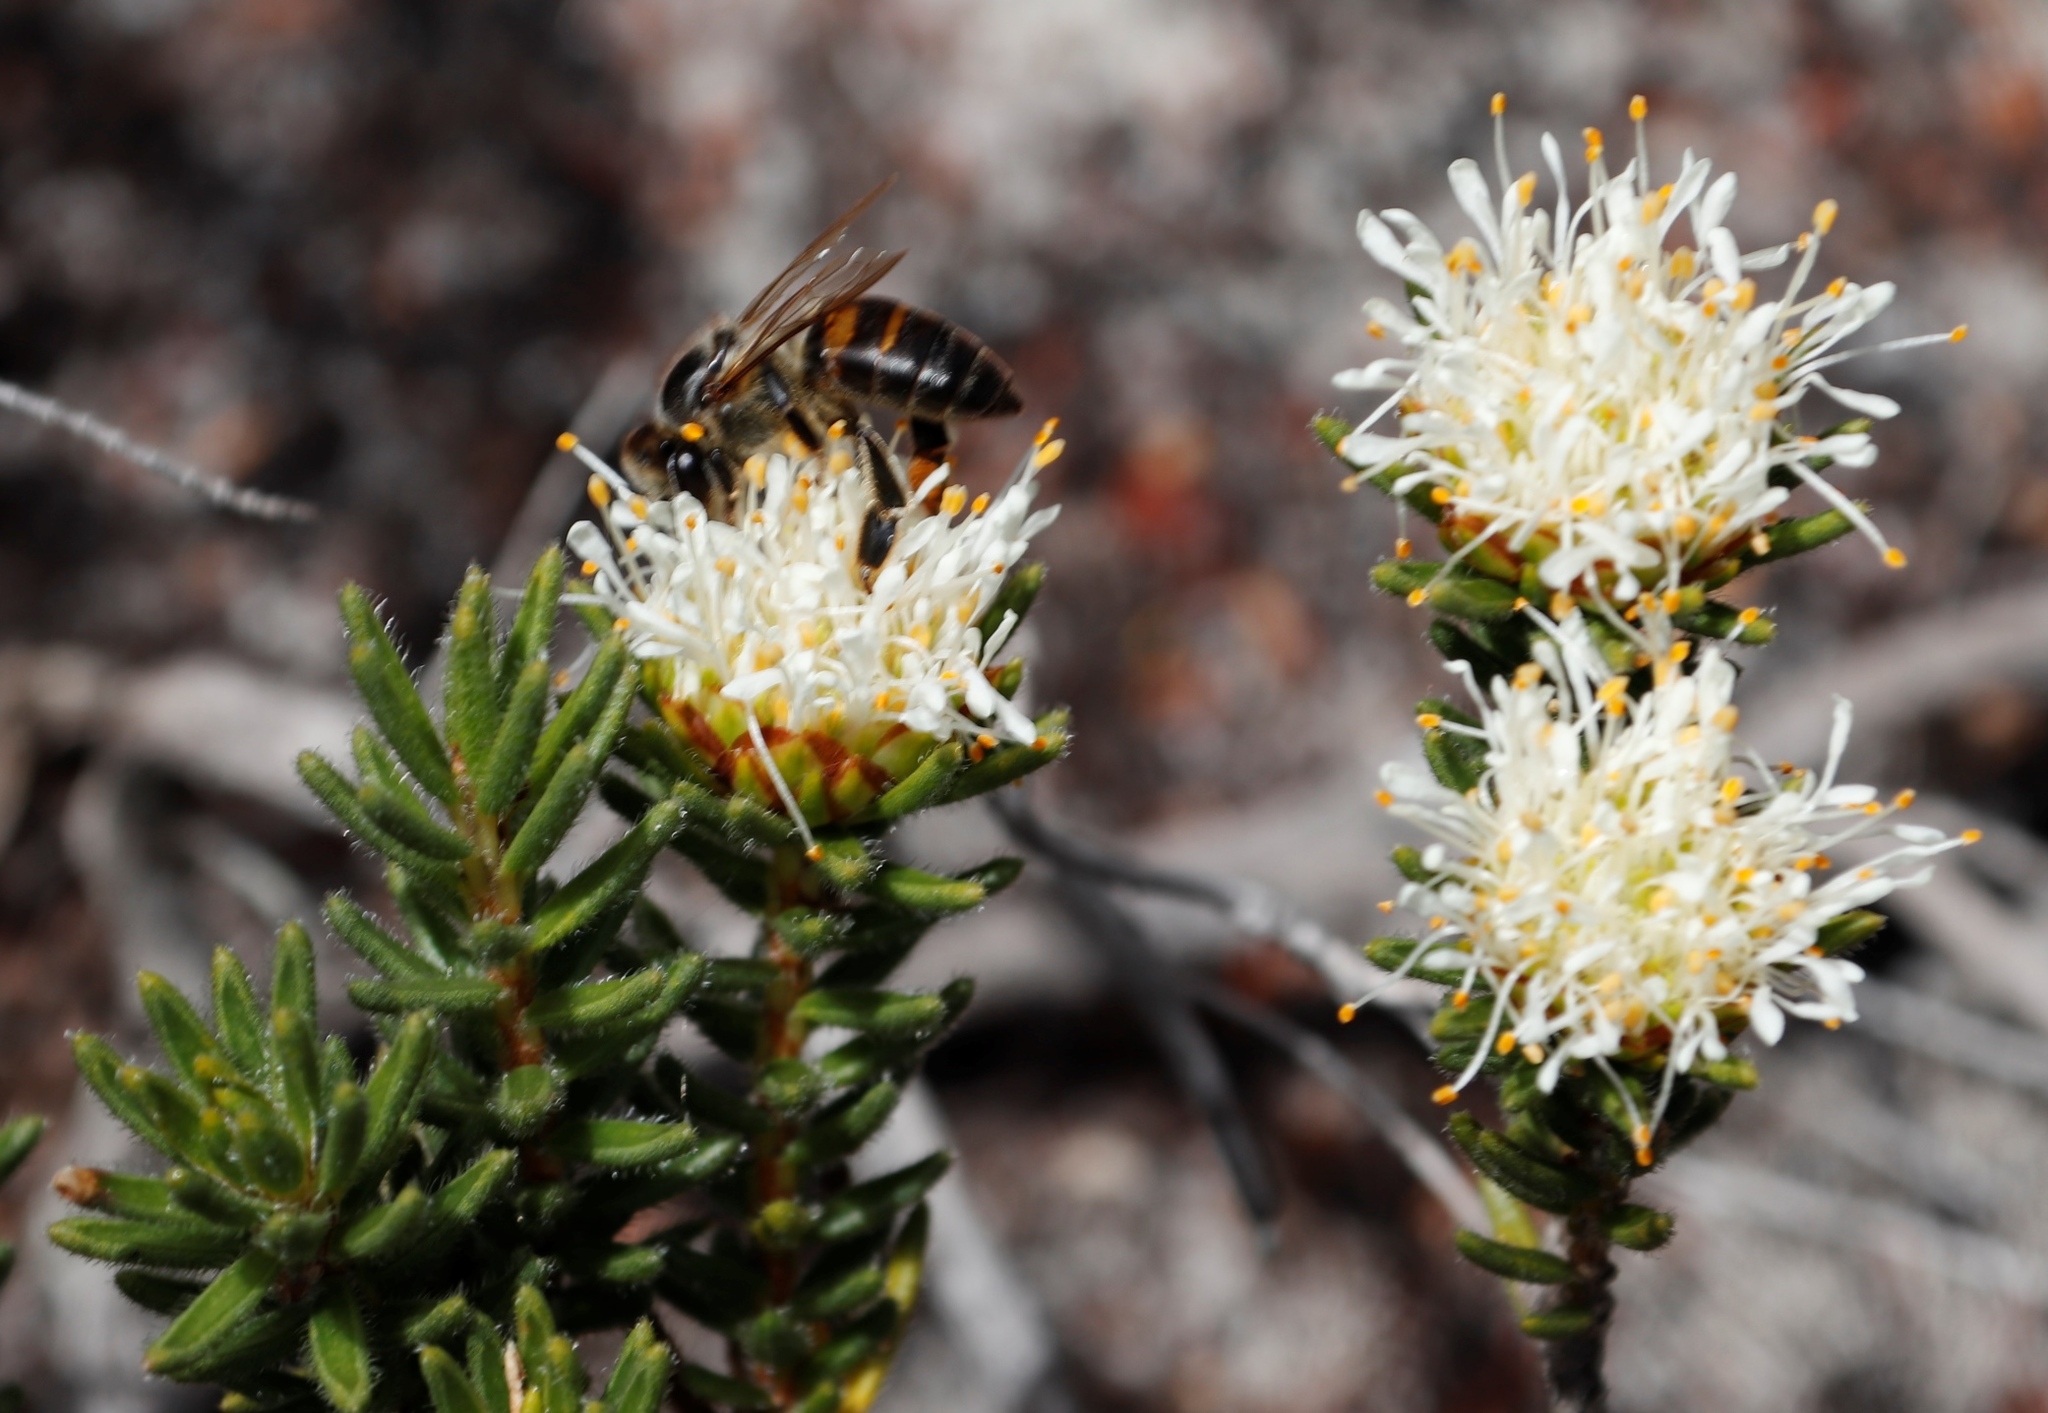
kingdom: Animalia
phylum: Arthropoda
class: Insecta
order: Hymenoptera
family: Apidae
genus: Apis
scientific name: Apis mellifera
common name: Honey bee
